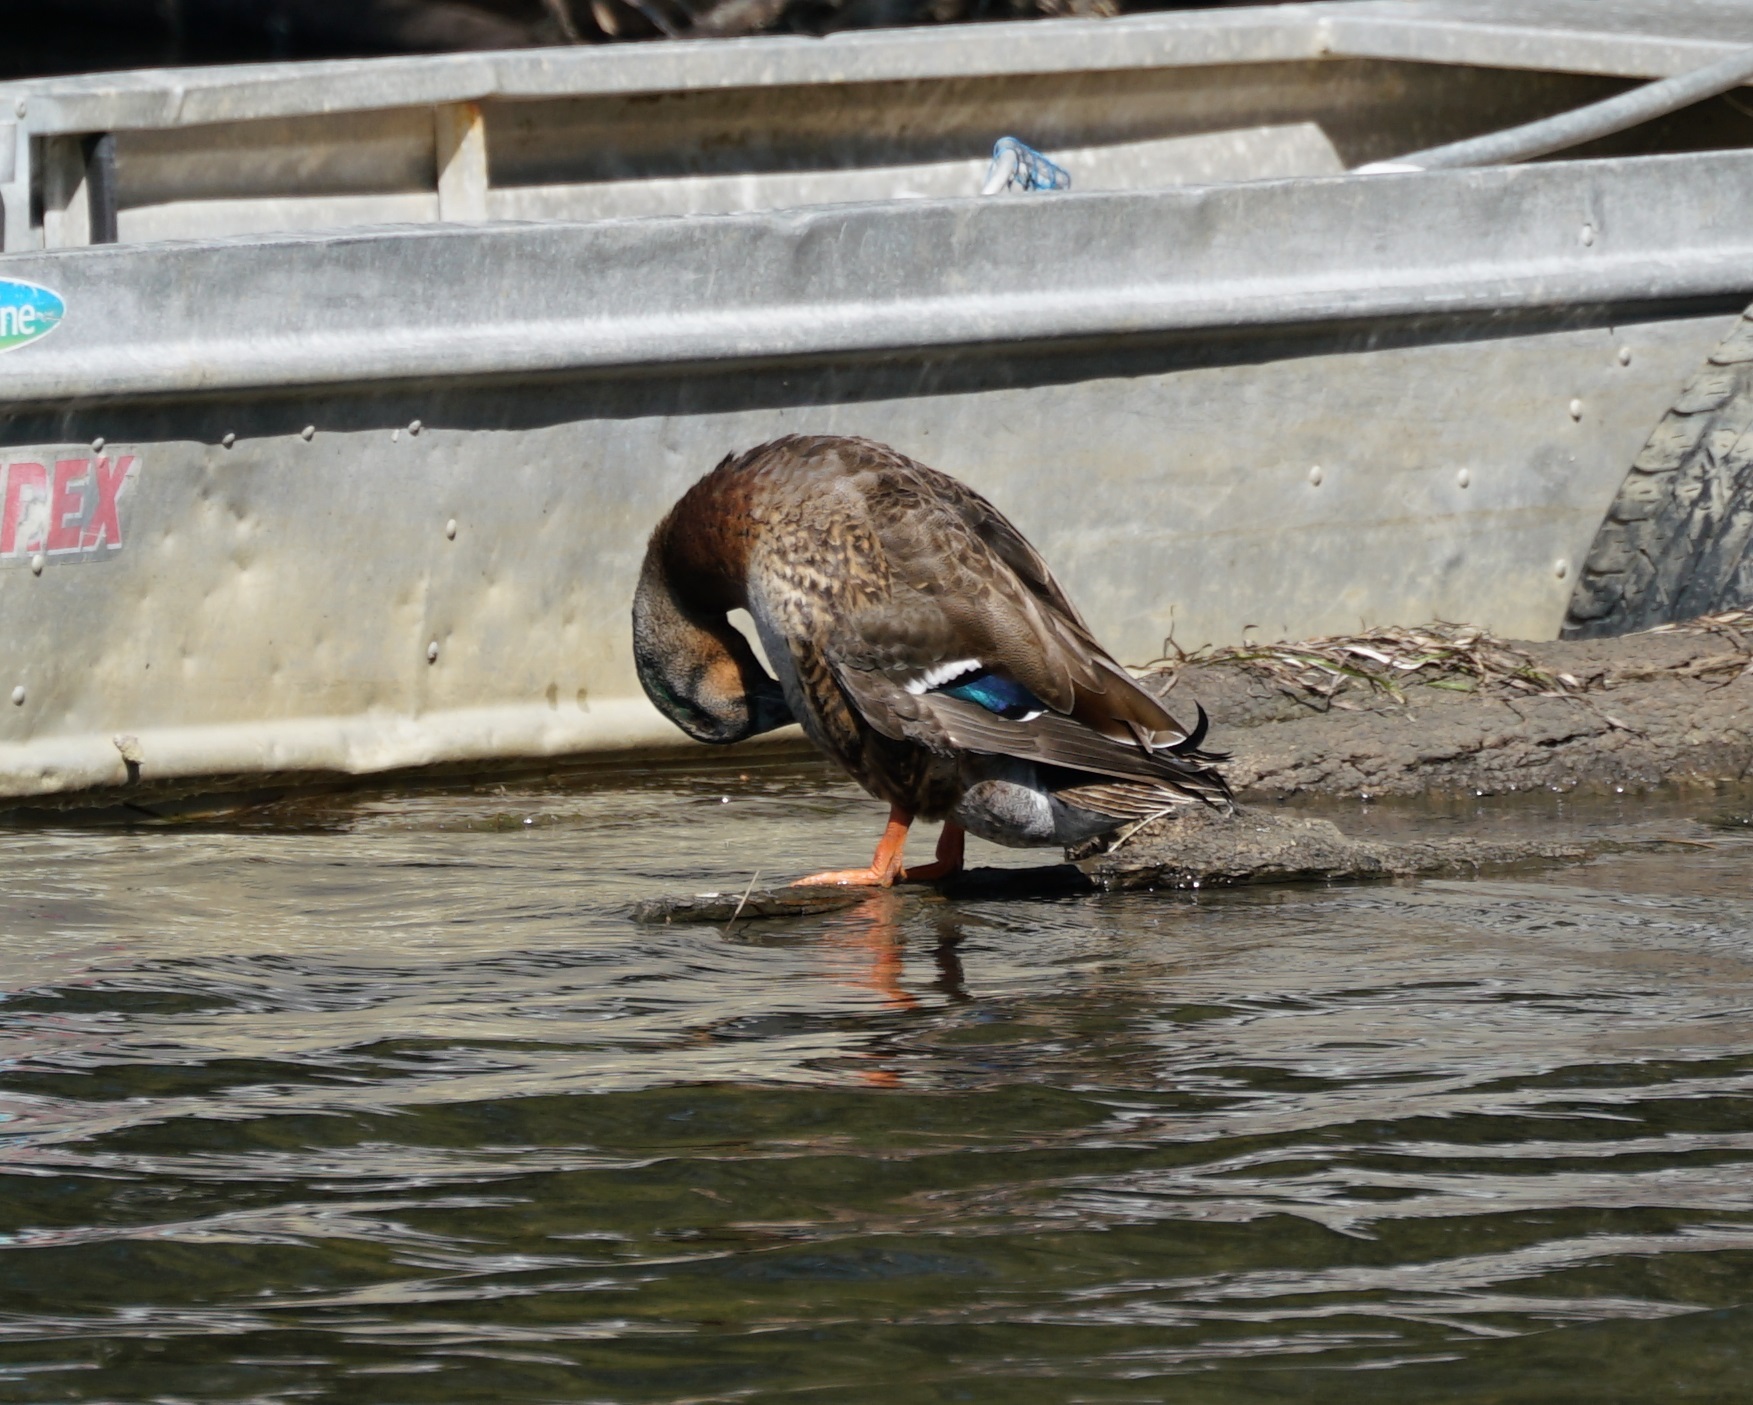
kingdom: Animalia
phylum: Chordata
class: Aves
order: Anseriformes
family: Anatidae
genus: Anas
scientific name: Anas platyrhynchos
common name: Mallard
